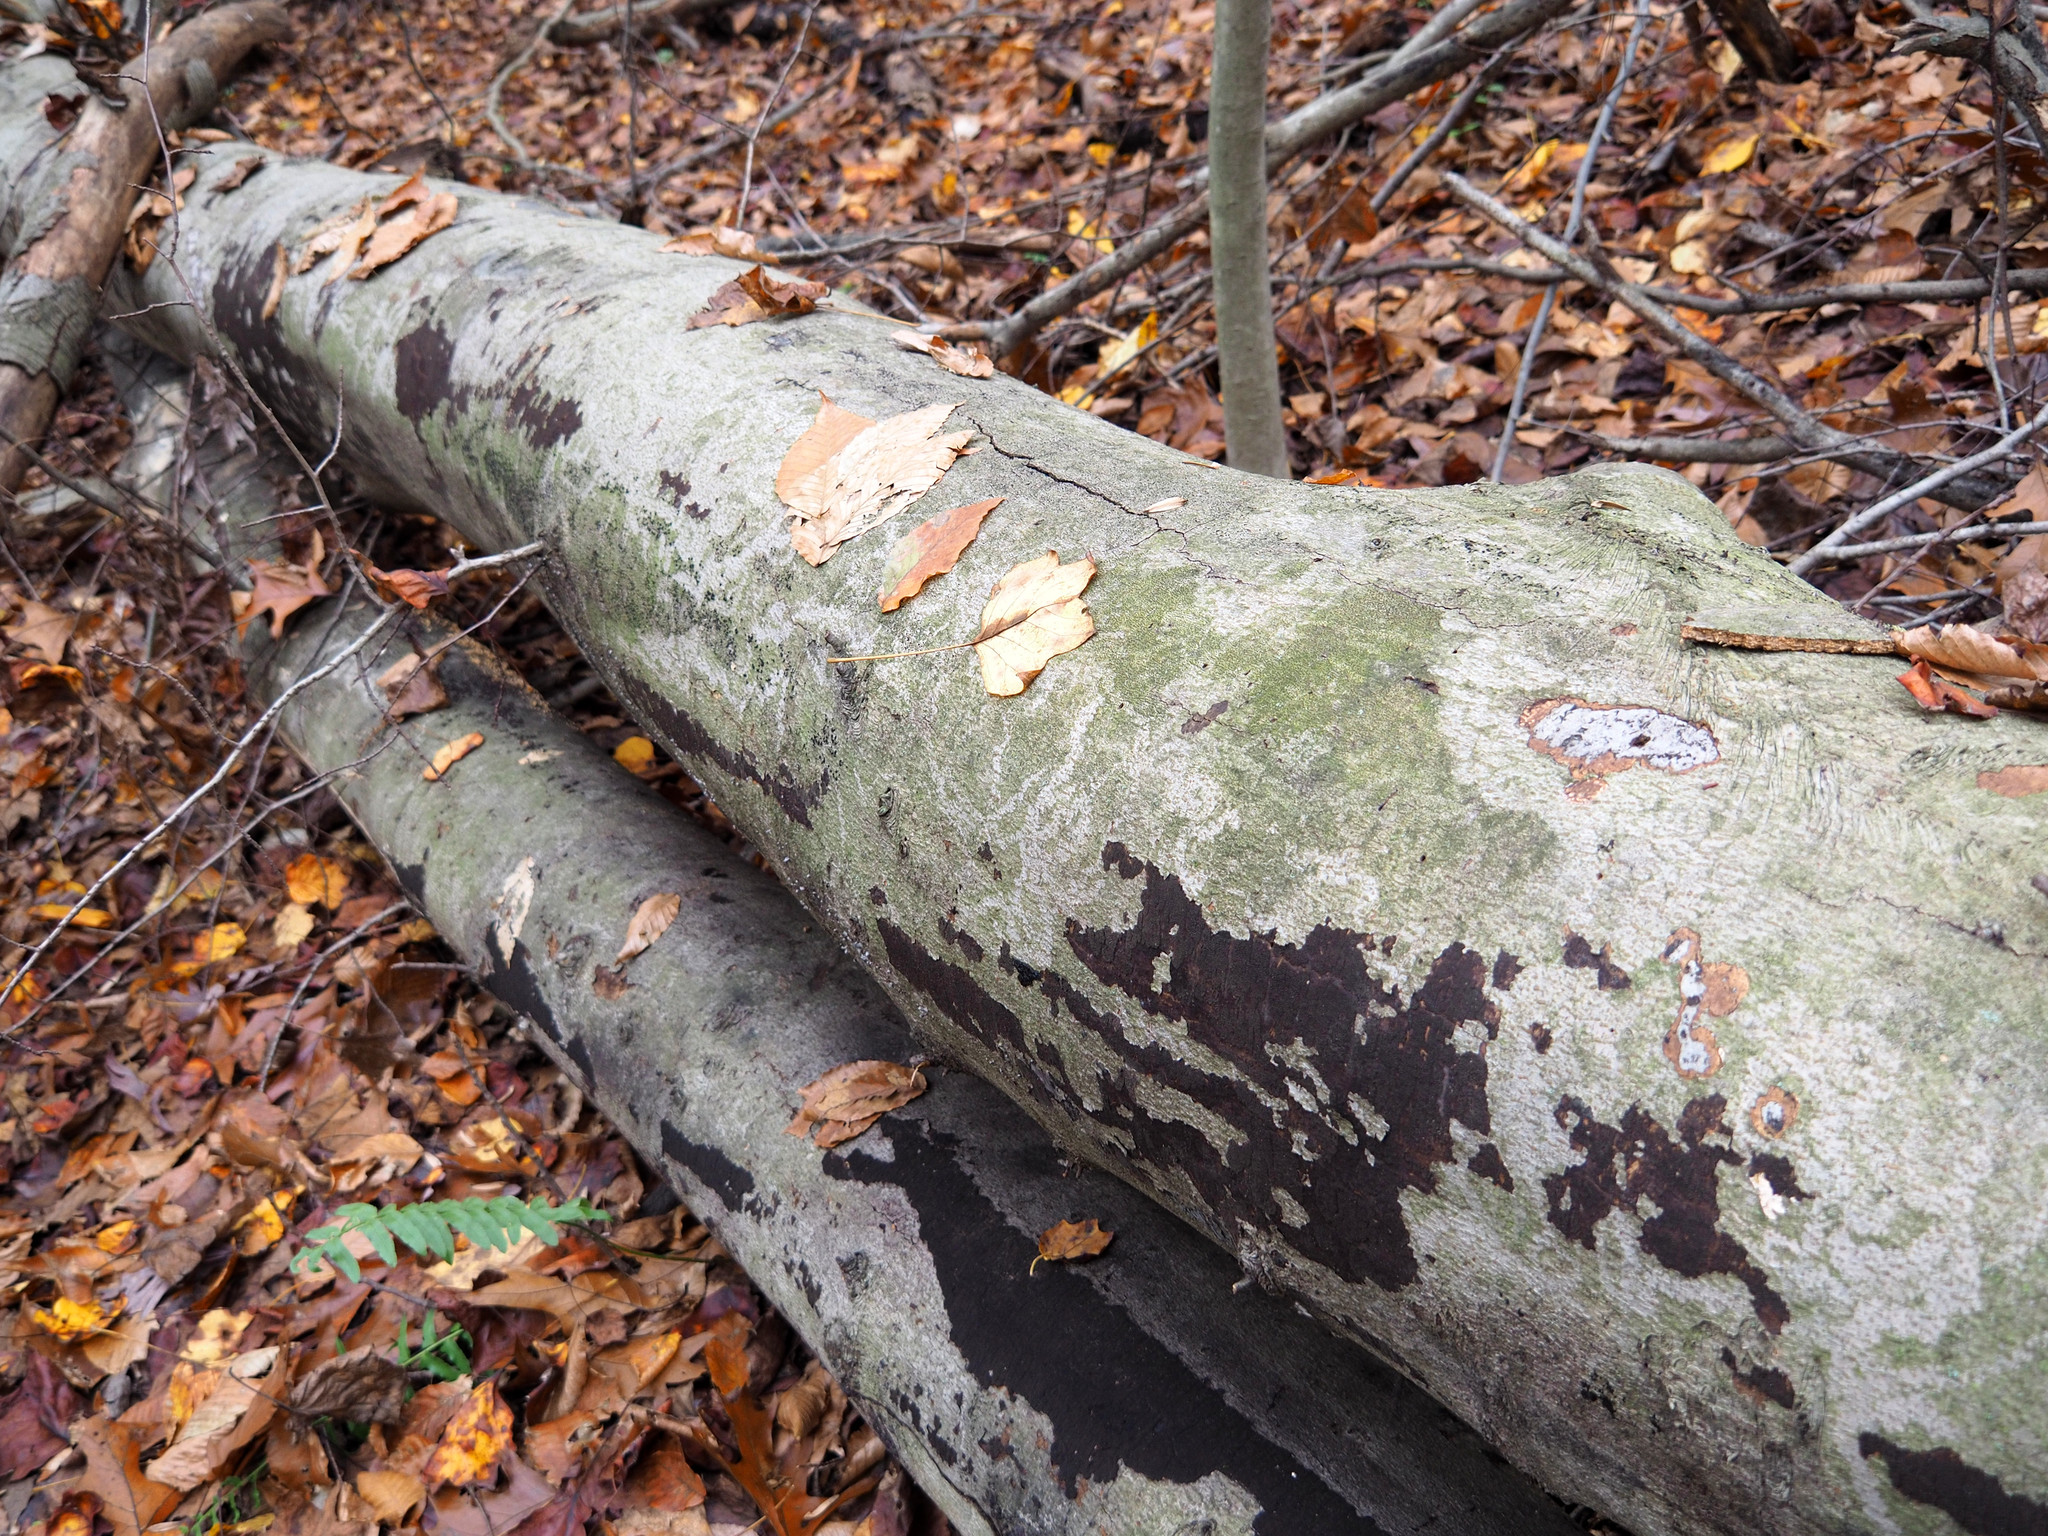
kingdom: Plantae
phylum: Tracheophyta
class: Magnoliopsida
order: Fagales
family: Fagaceae
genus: Fagus
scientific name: Fagus grandifolia
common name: American beech
